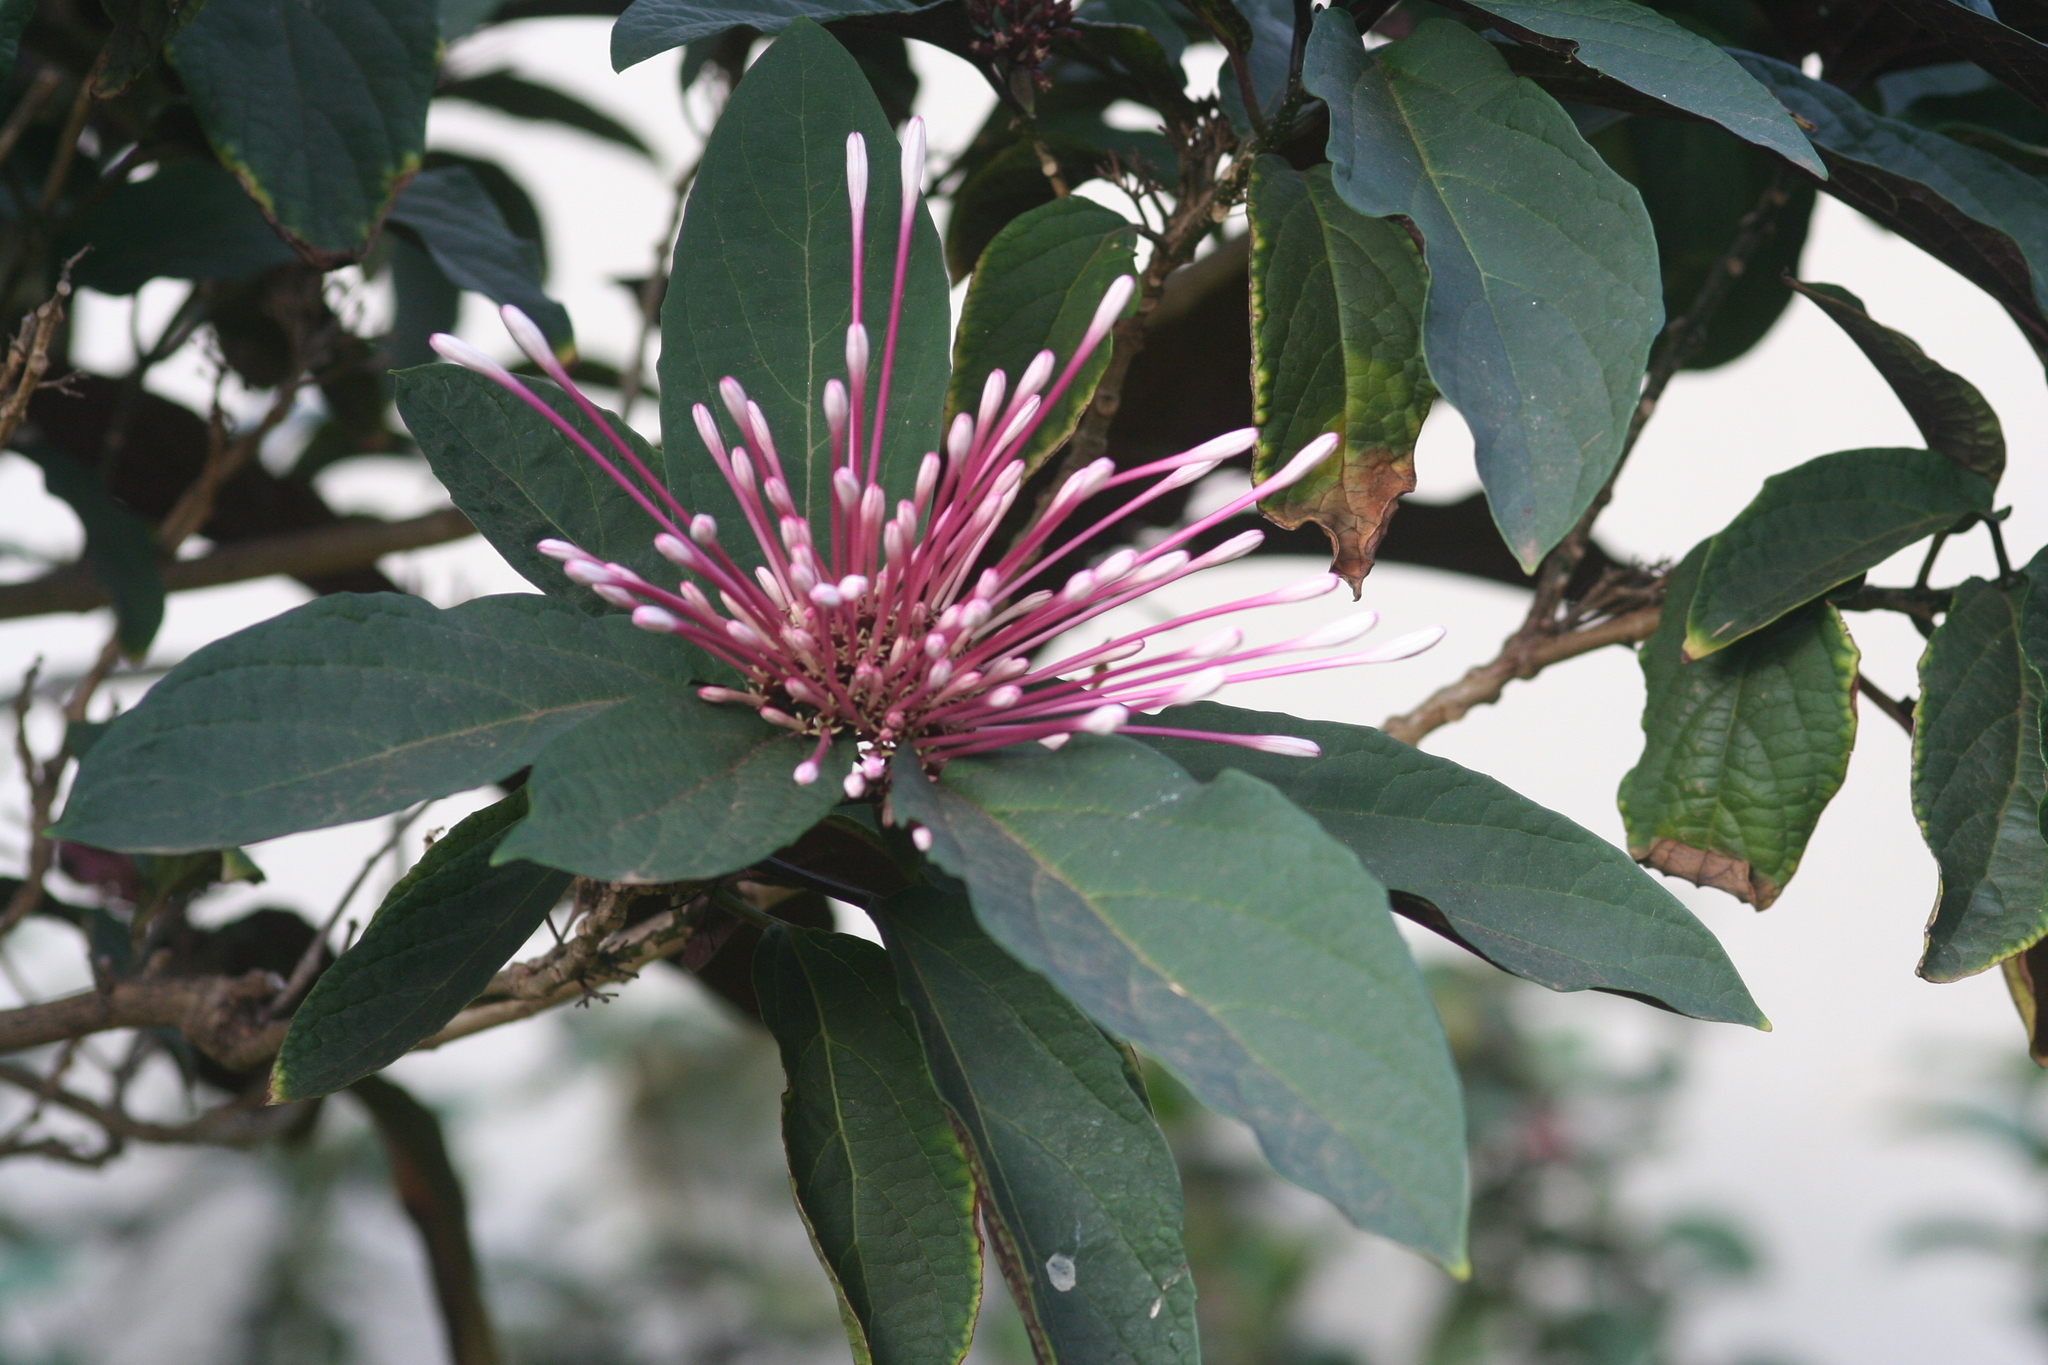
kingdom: Plantae
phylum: Tracheophyta
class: Magnoliopsida
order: Lamiales
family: Lamiaceae
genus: Clerodendrum
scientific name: Clerodendrum quadriloculare
